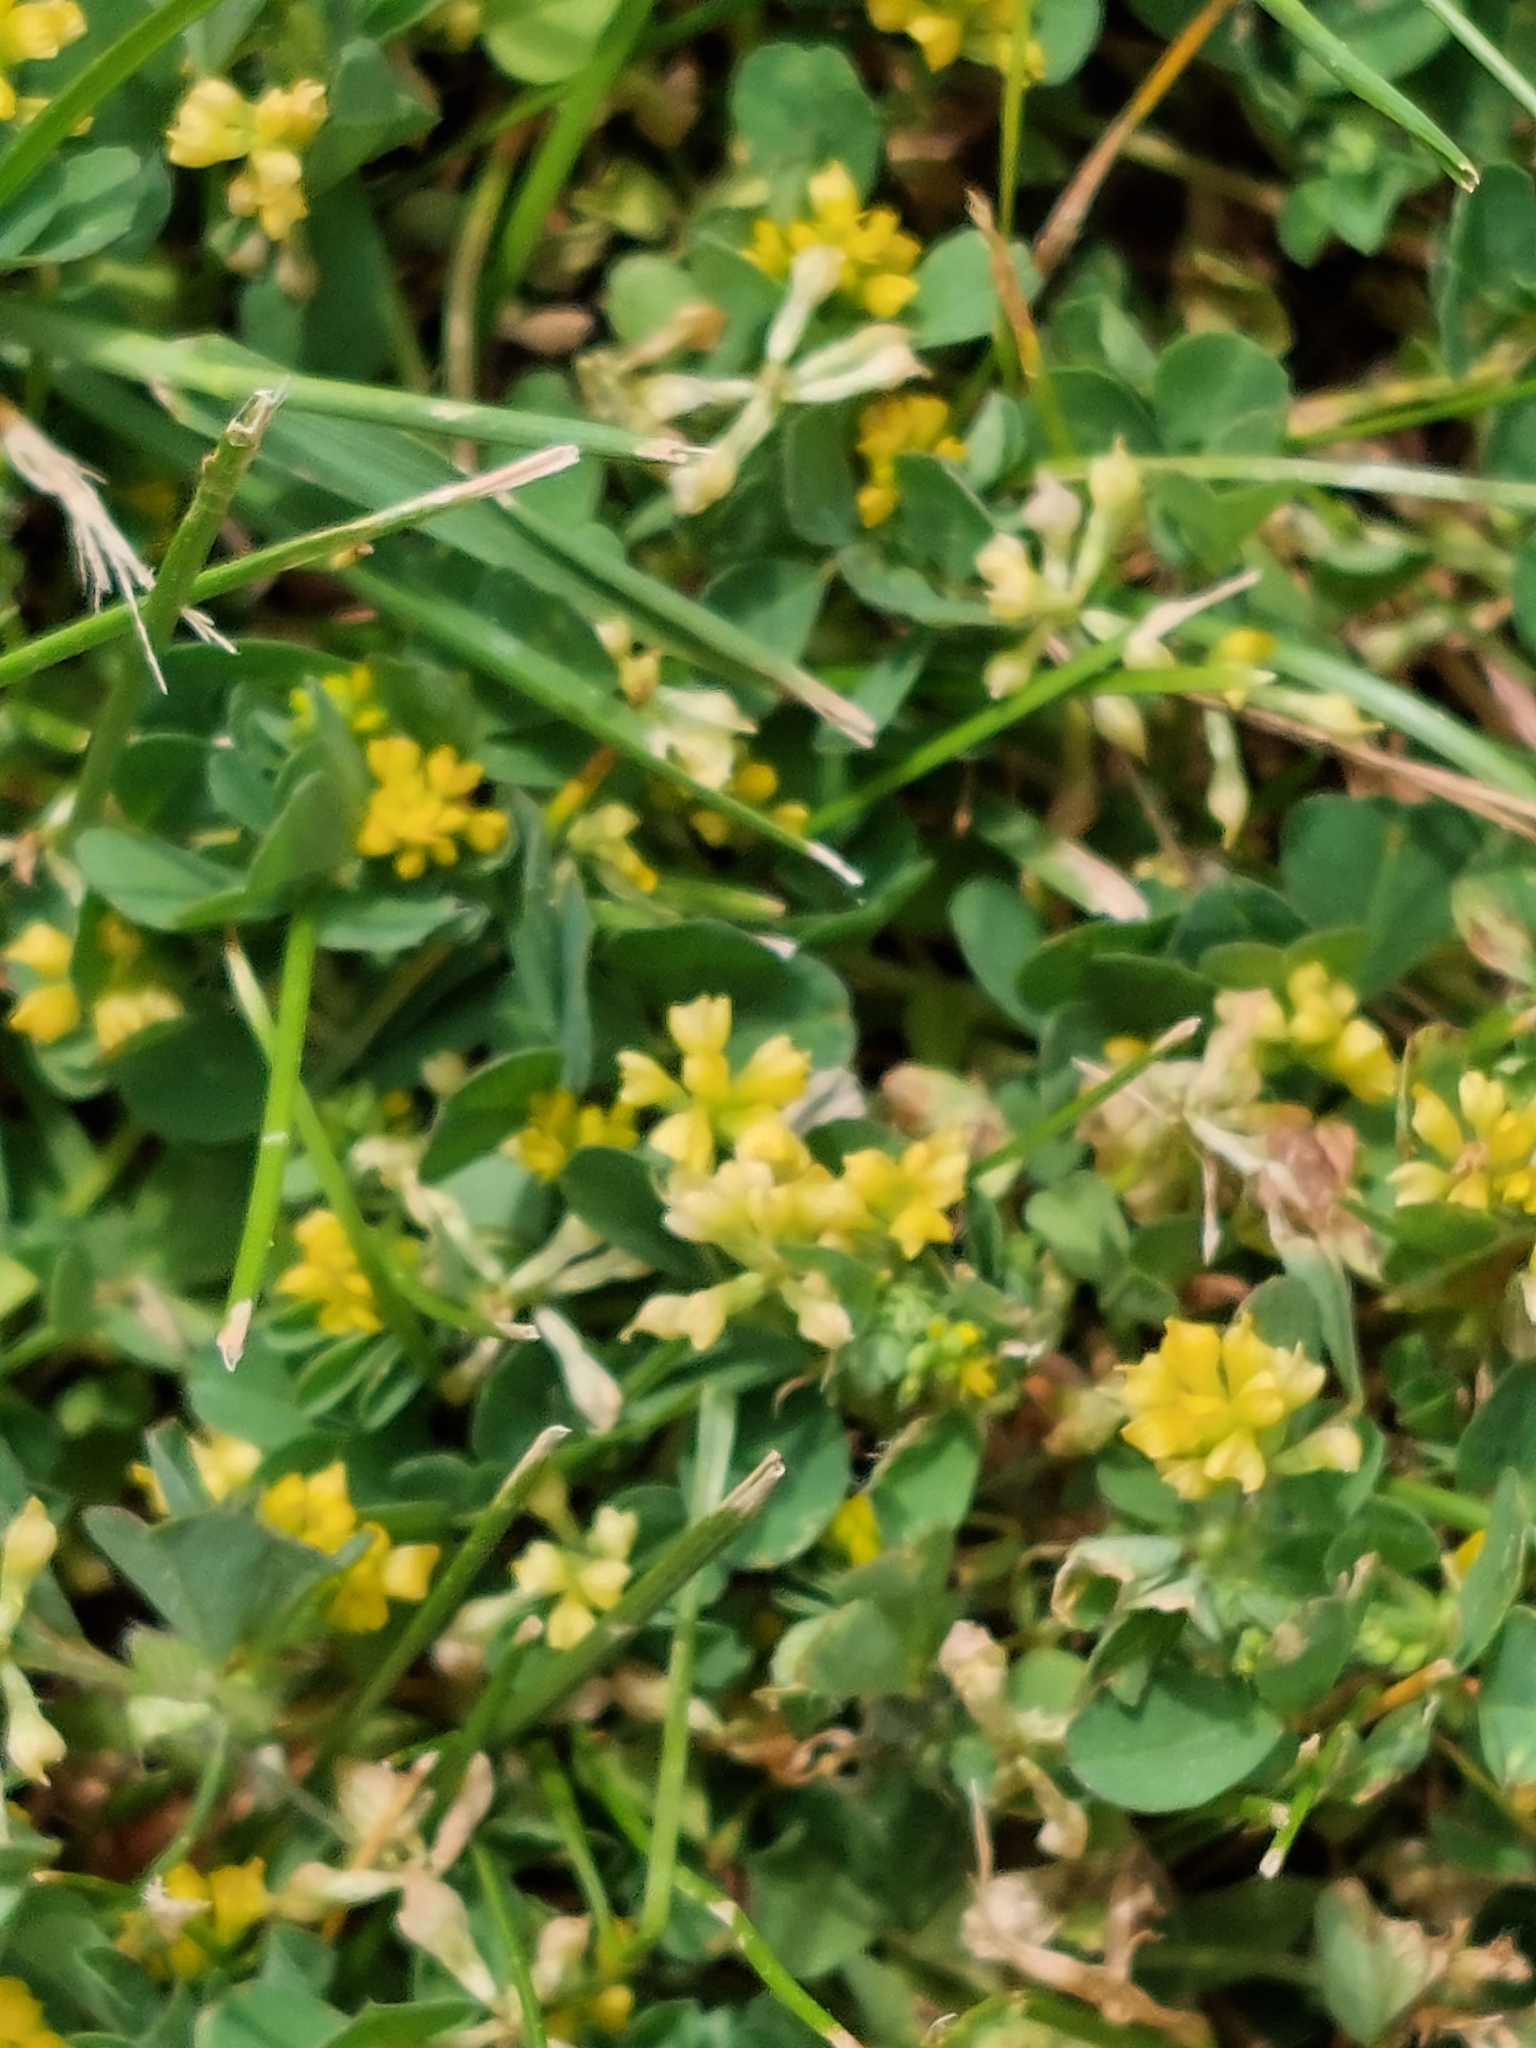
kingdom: Plantae
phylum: Tracheophyta
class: Magnoliopsida
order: Fabales
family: Fabaceae
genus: Trifolium
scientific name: Trifolium dubium
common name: Suckling clover
